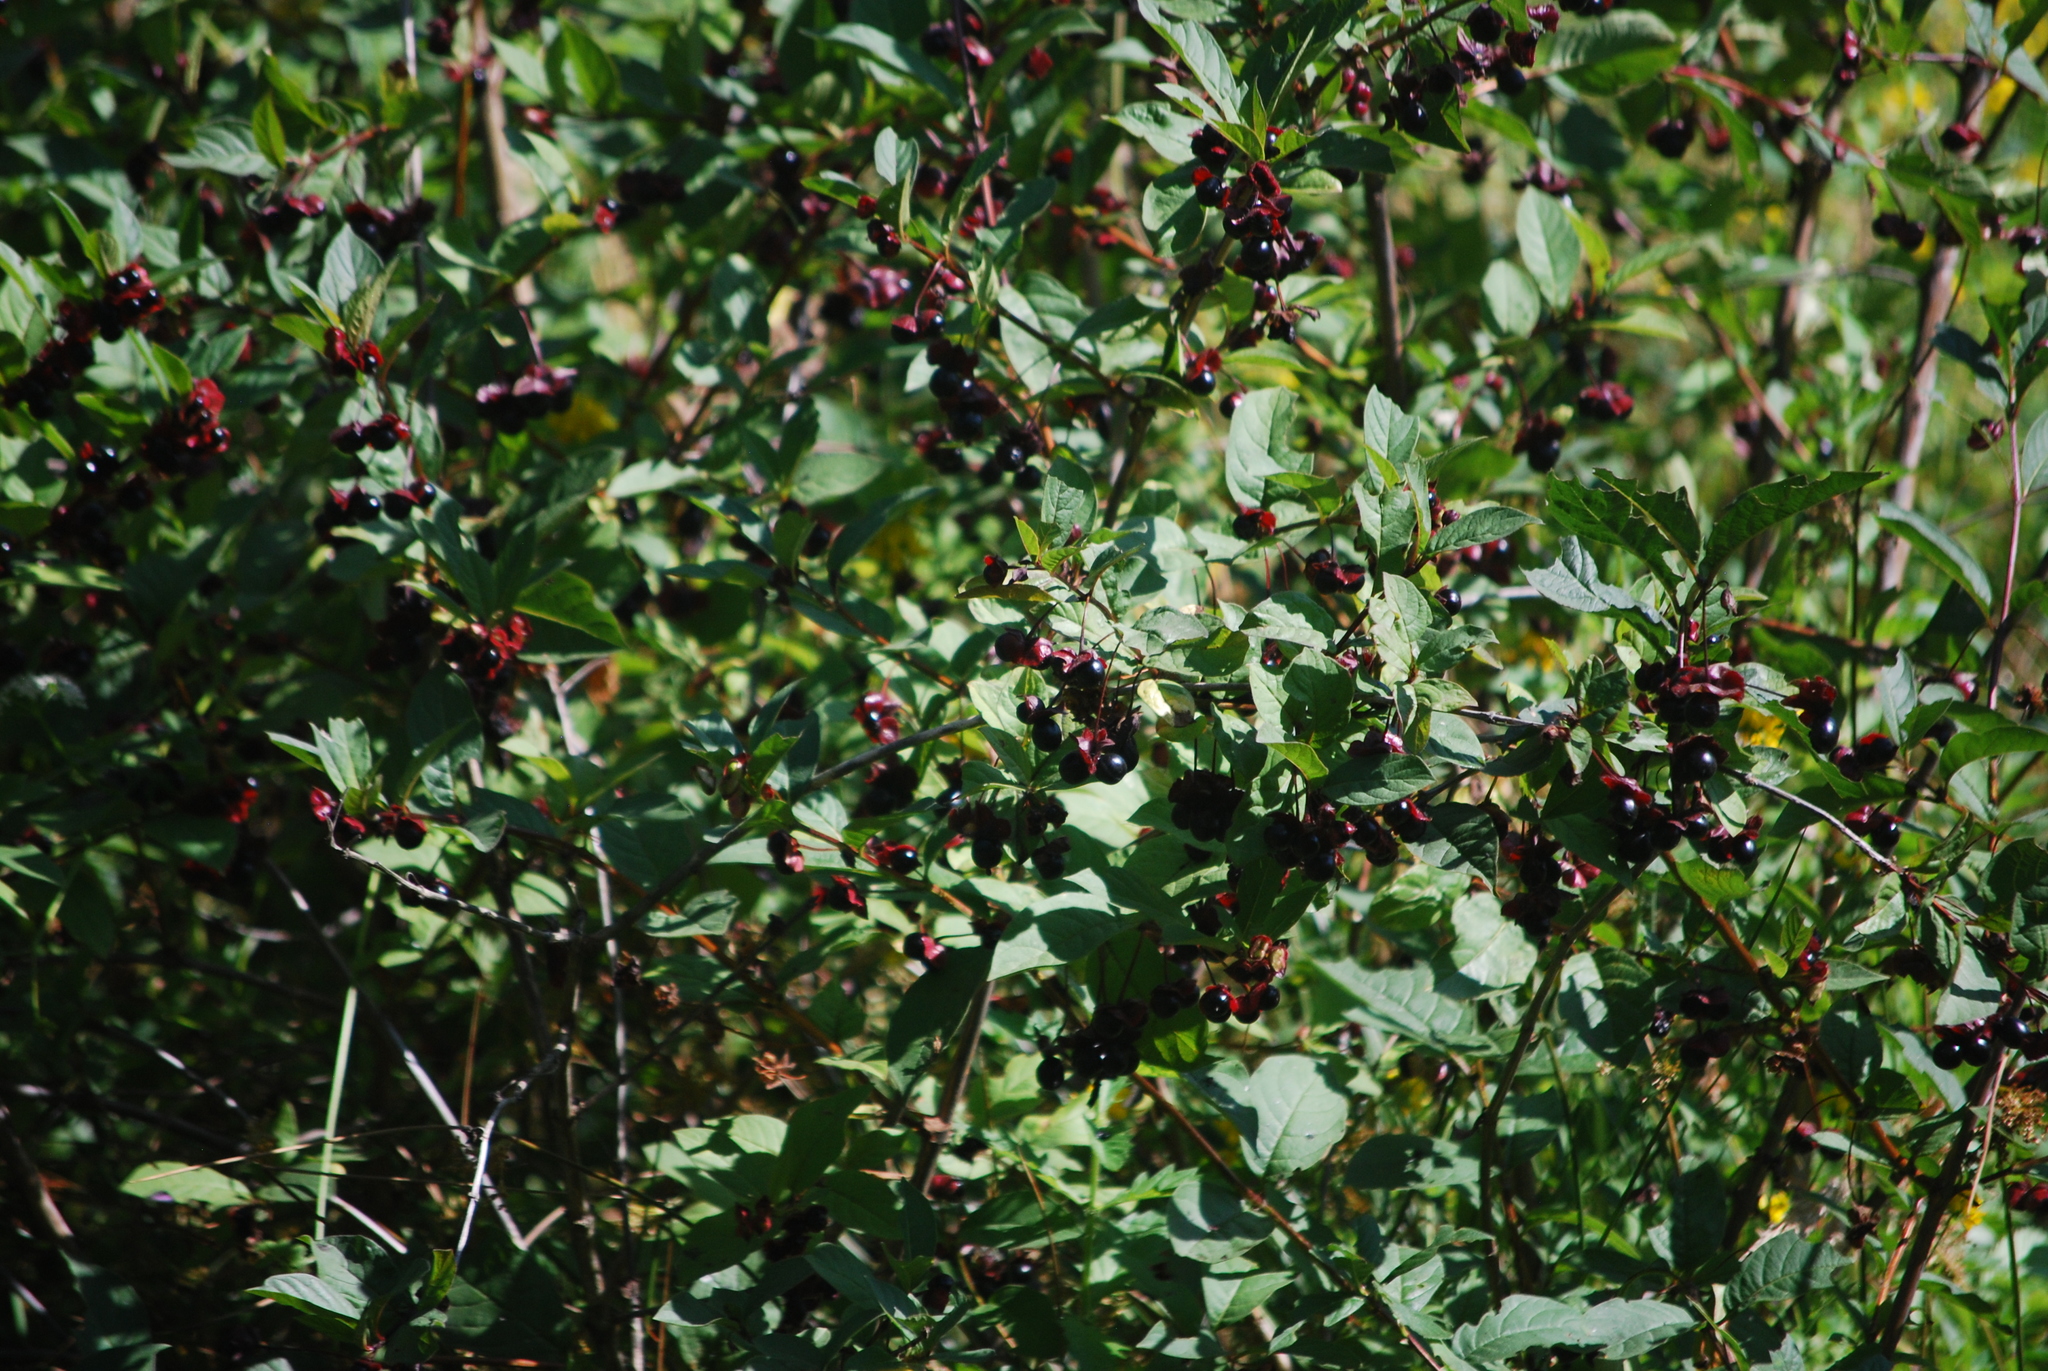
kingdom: Plantae
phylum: Tracheophyta
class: Magnoliopsida
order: Dipsacales
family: Caprifoliaceae
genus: Lonicera
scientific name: Lonicera involucrata
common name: Californian honeysuckle
